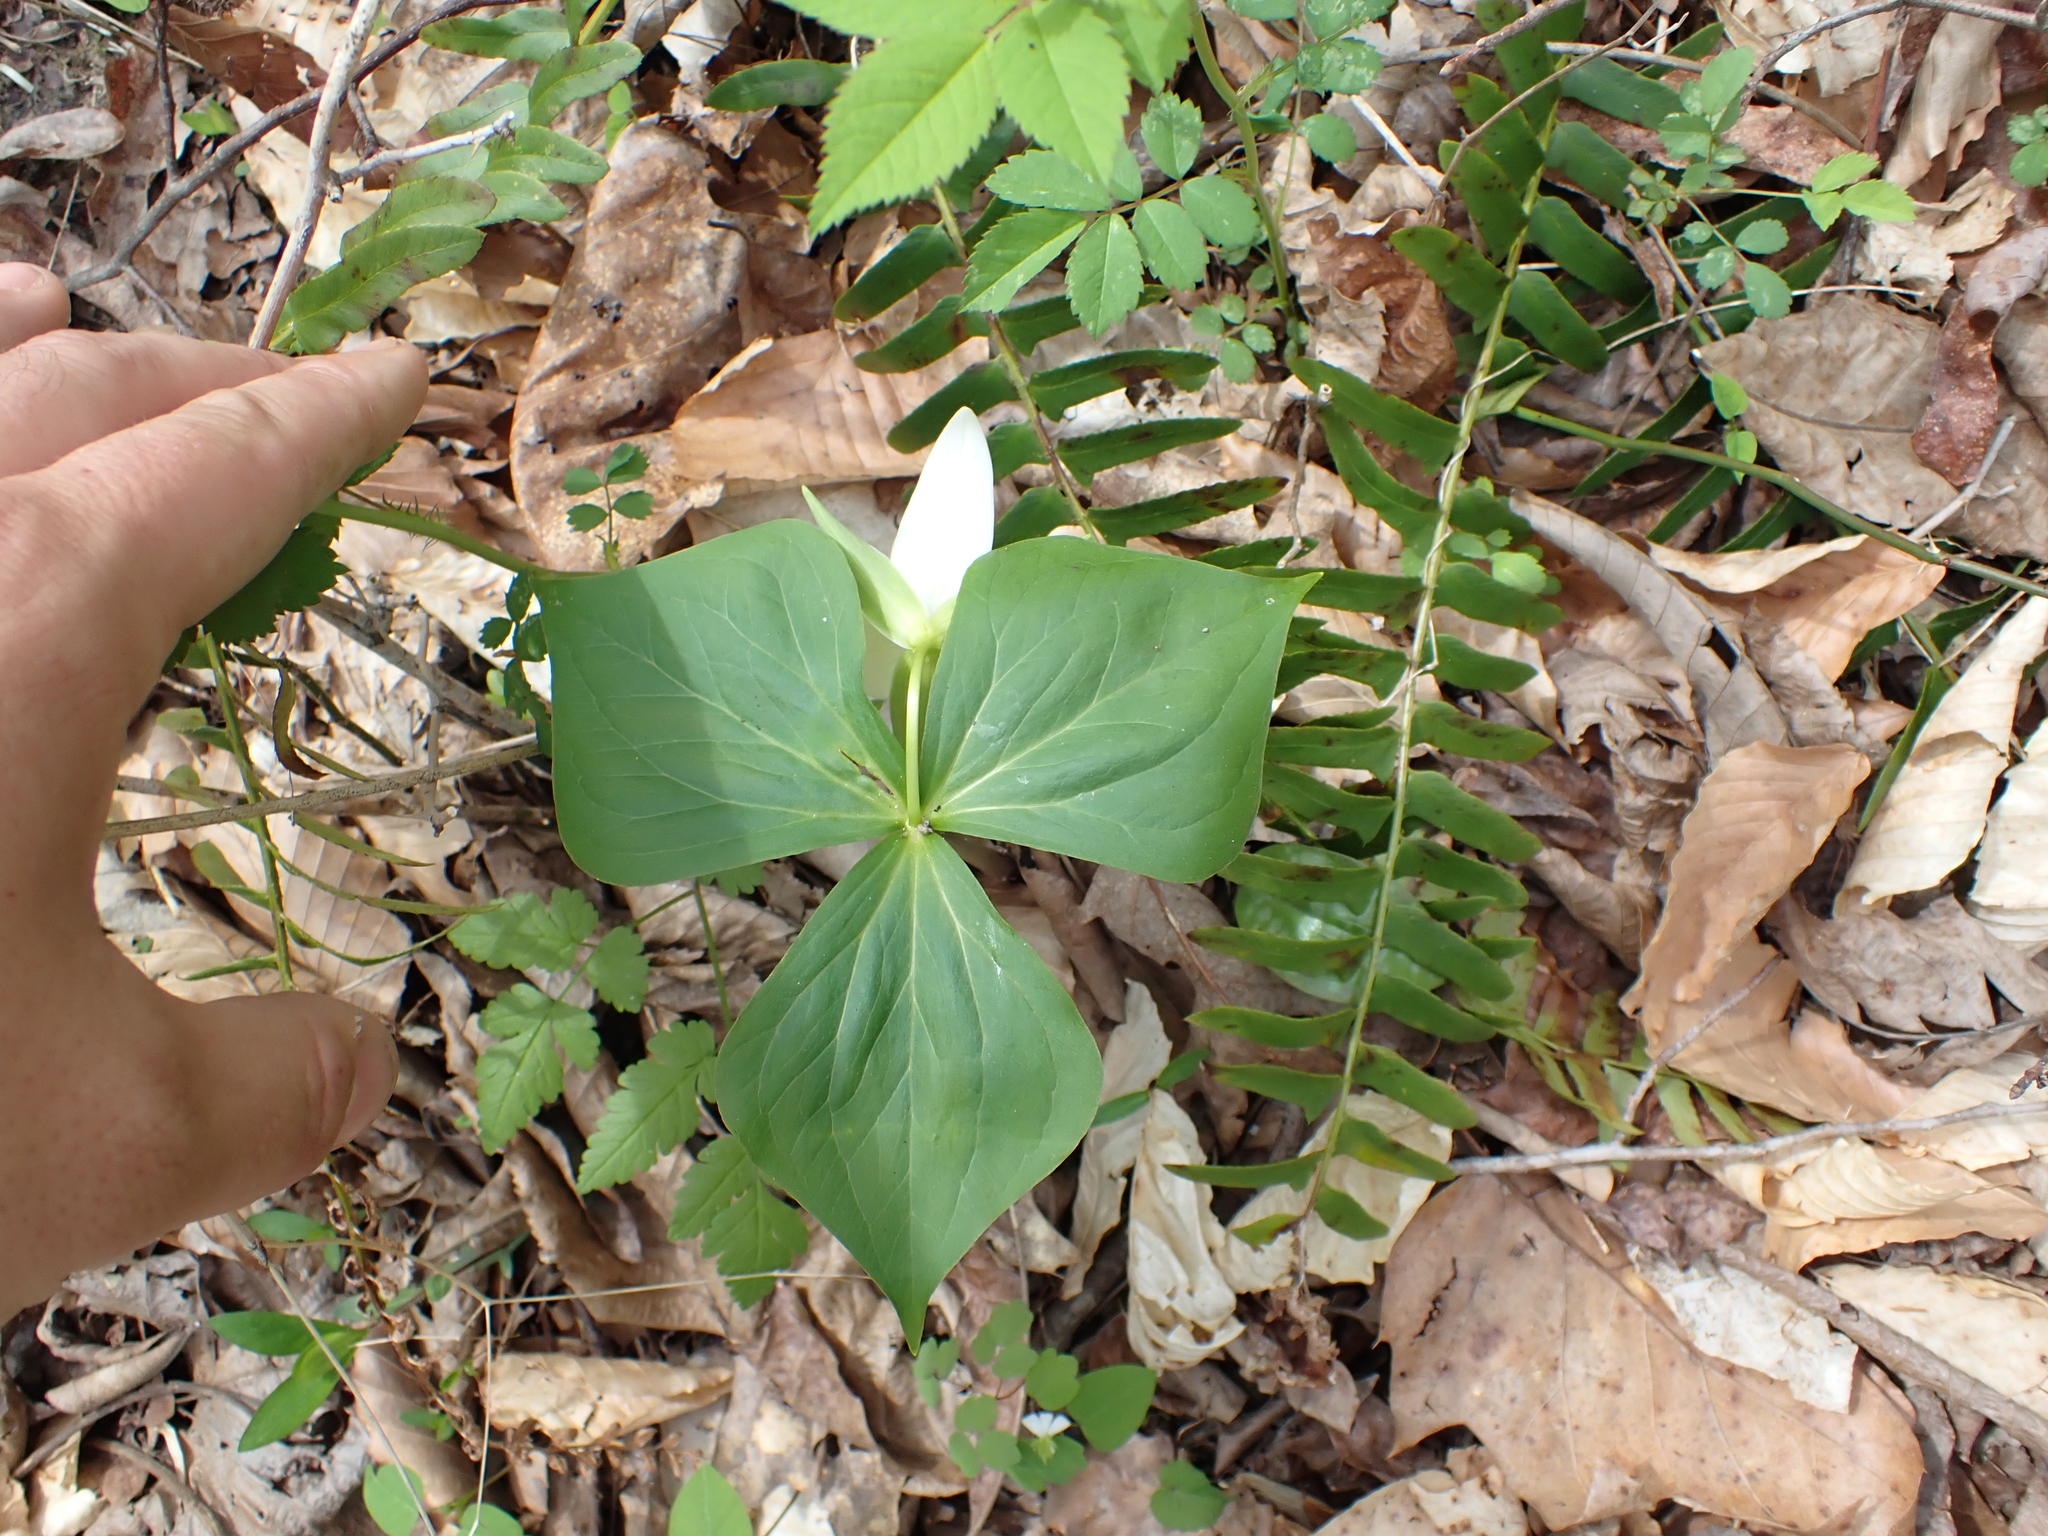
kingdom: Plantae
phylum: Tracheophyta
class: Liliopsida
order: Liliales
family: Melanthiaceae
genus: Trillium
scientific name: Trillium erectum
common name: Purple trillium
